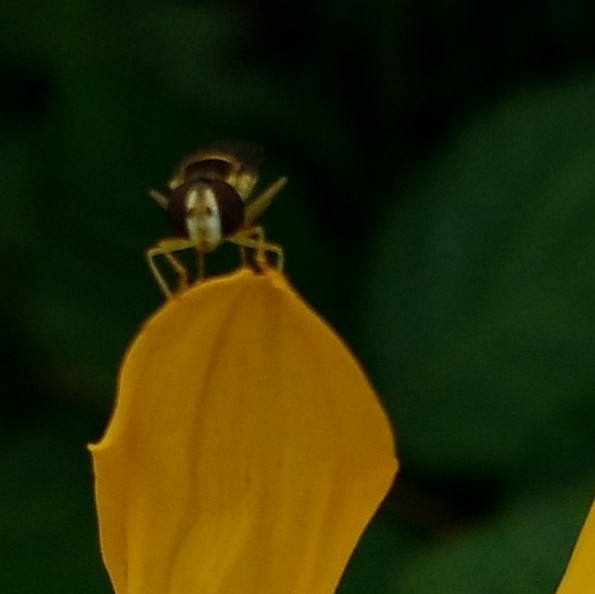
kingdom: Animalia
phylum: Arthropoda
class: Insecta
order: Diptera
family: Syrphidae
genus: Sphaerophoria
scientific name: Sphaerophoria
